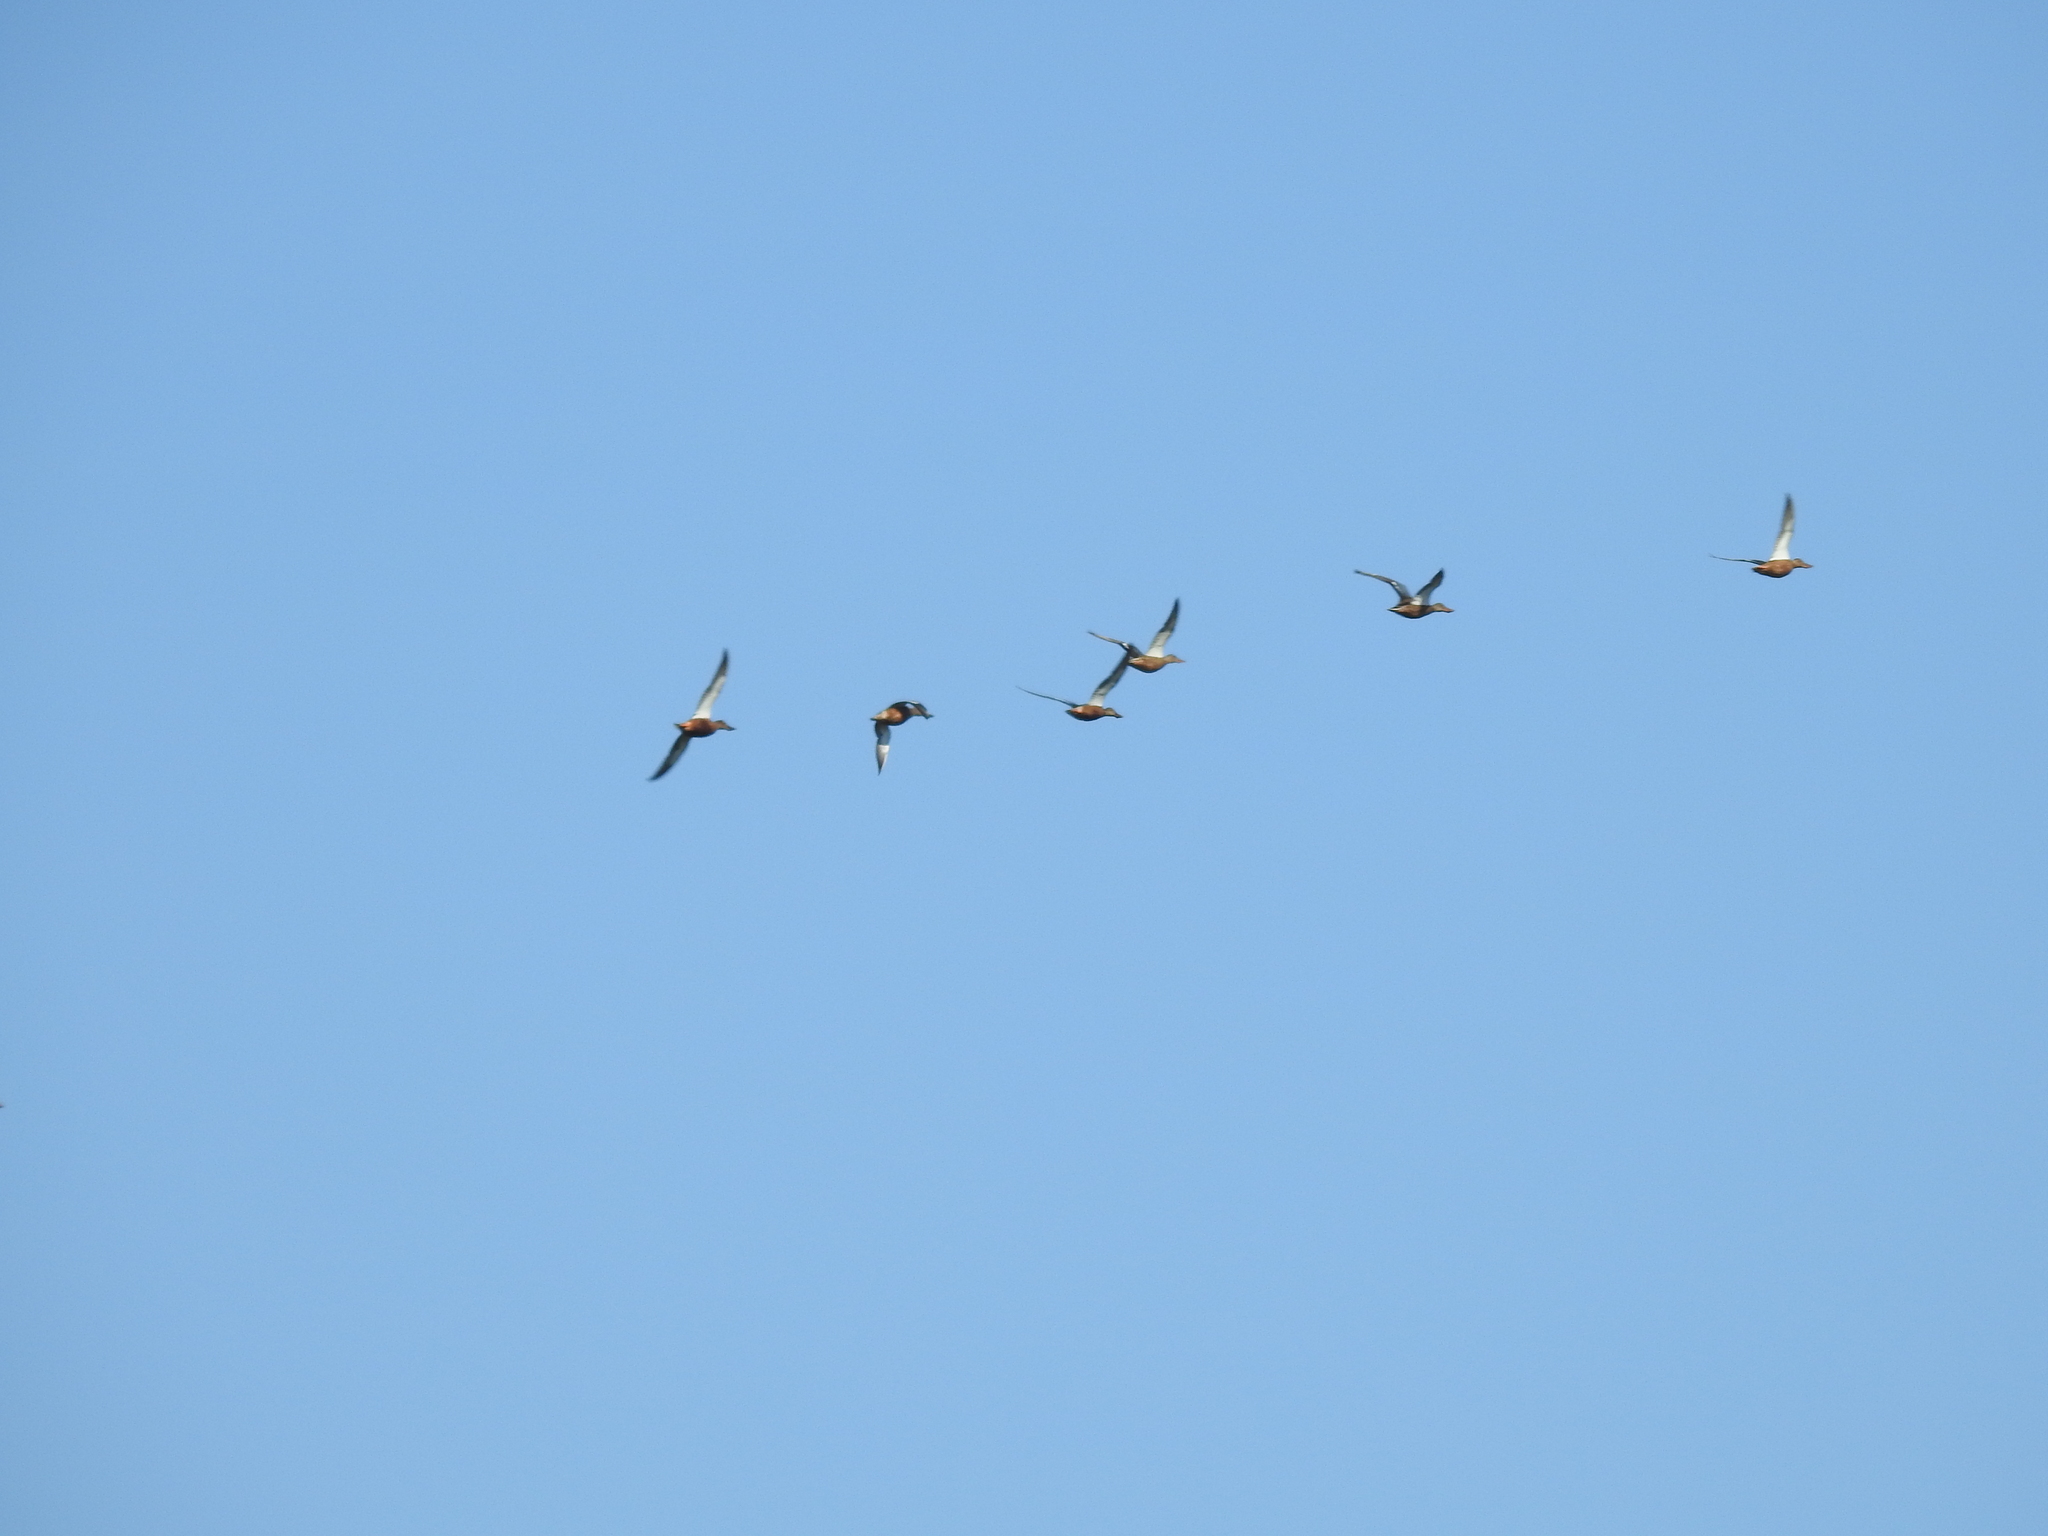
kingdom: Animalia
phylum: Chordata
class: Aves
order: Anseriformes
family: Anatidae
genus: Spatula
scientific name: Spatula clypeata
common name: Northern shoveler
